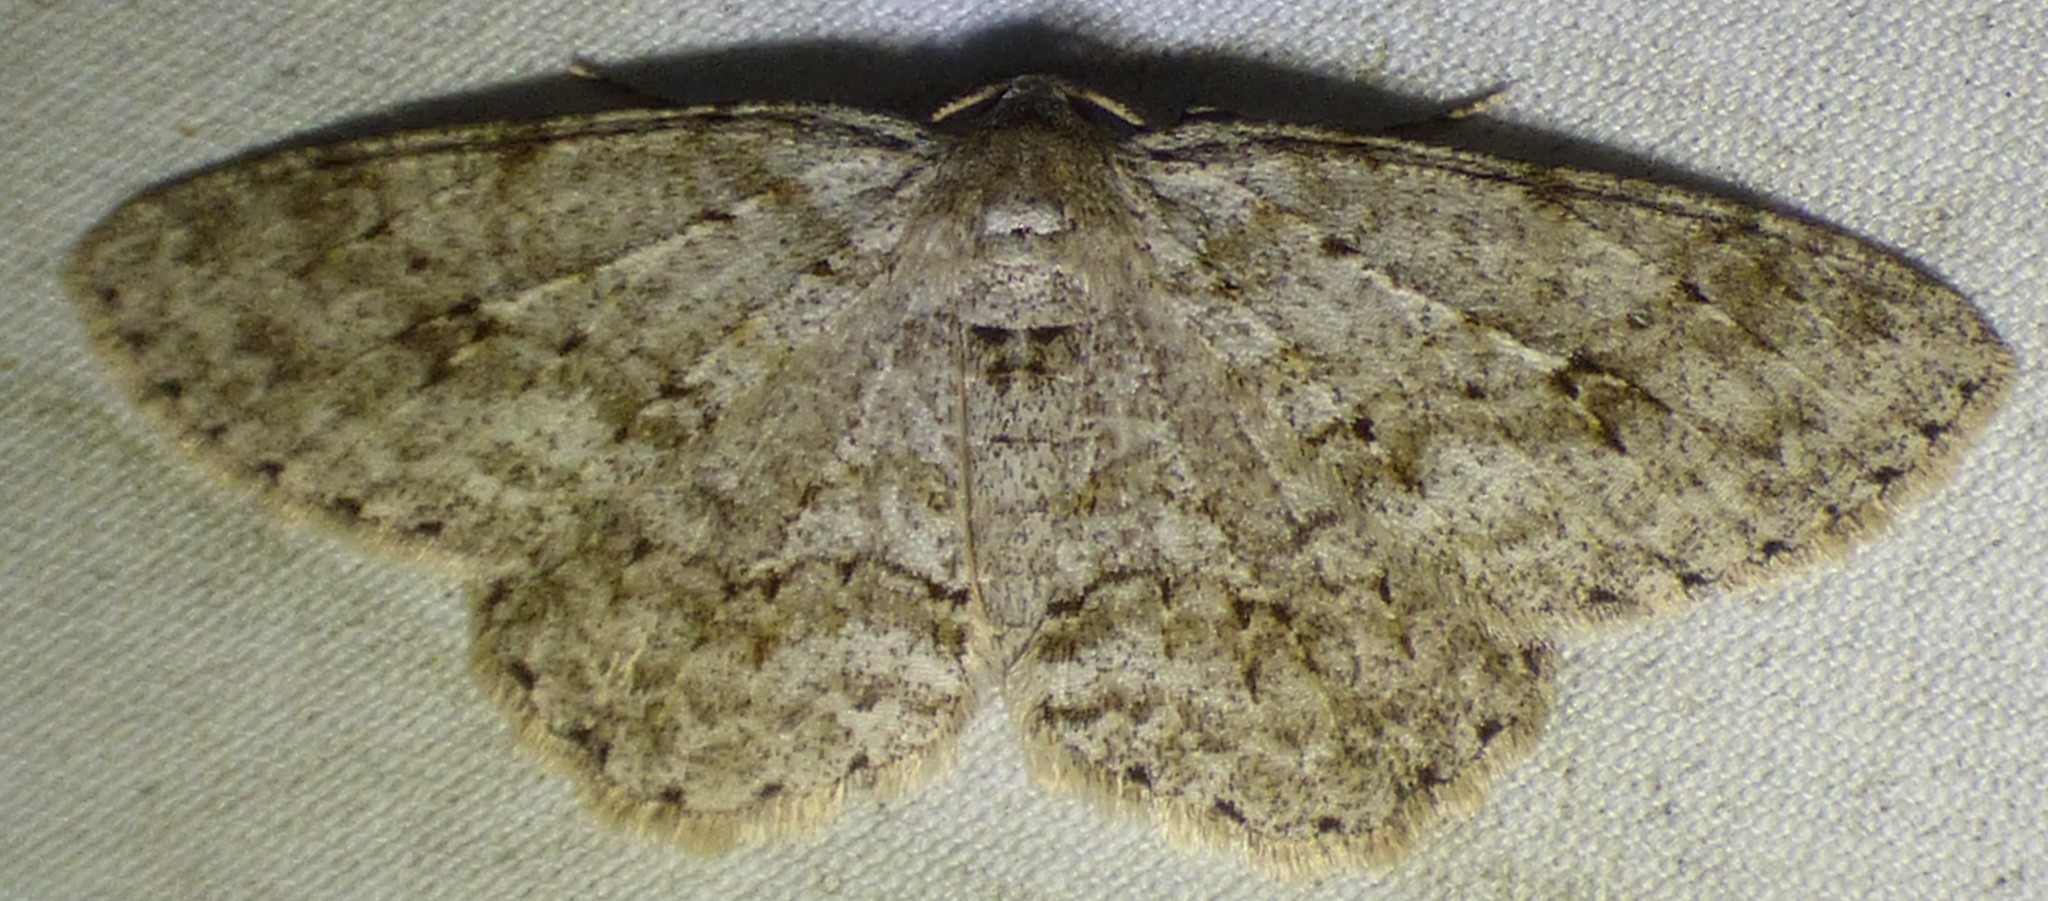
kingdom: Animalia
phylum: Arthropoda
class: Insecta
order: Lepidoptera
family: Geometridae
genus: Ectropis
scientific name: Ectropis crepuscularia
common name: Engrailed
